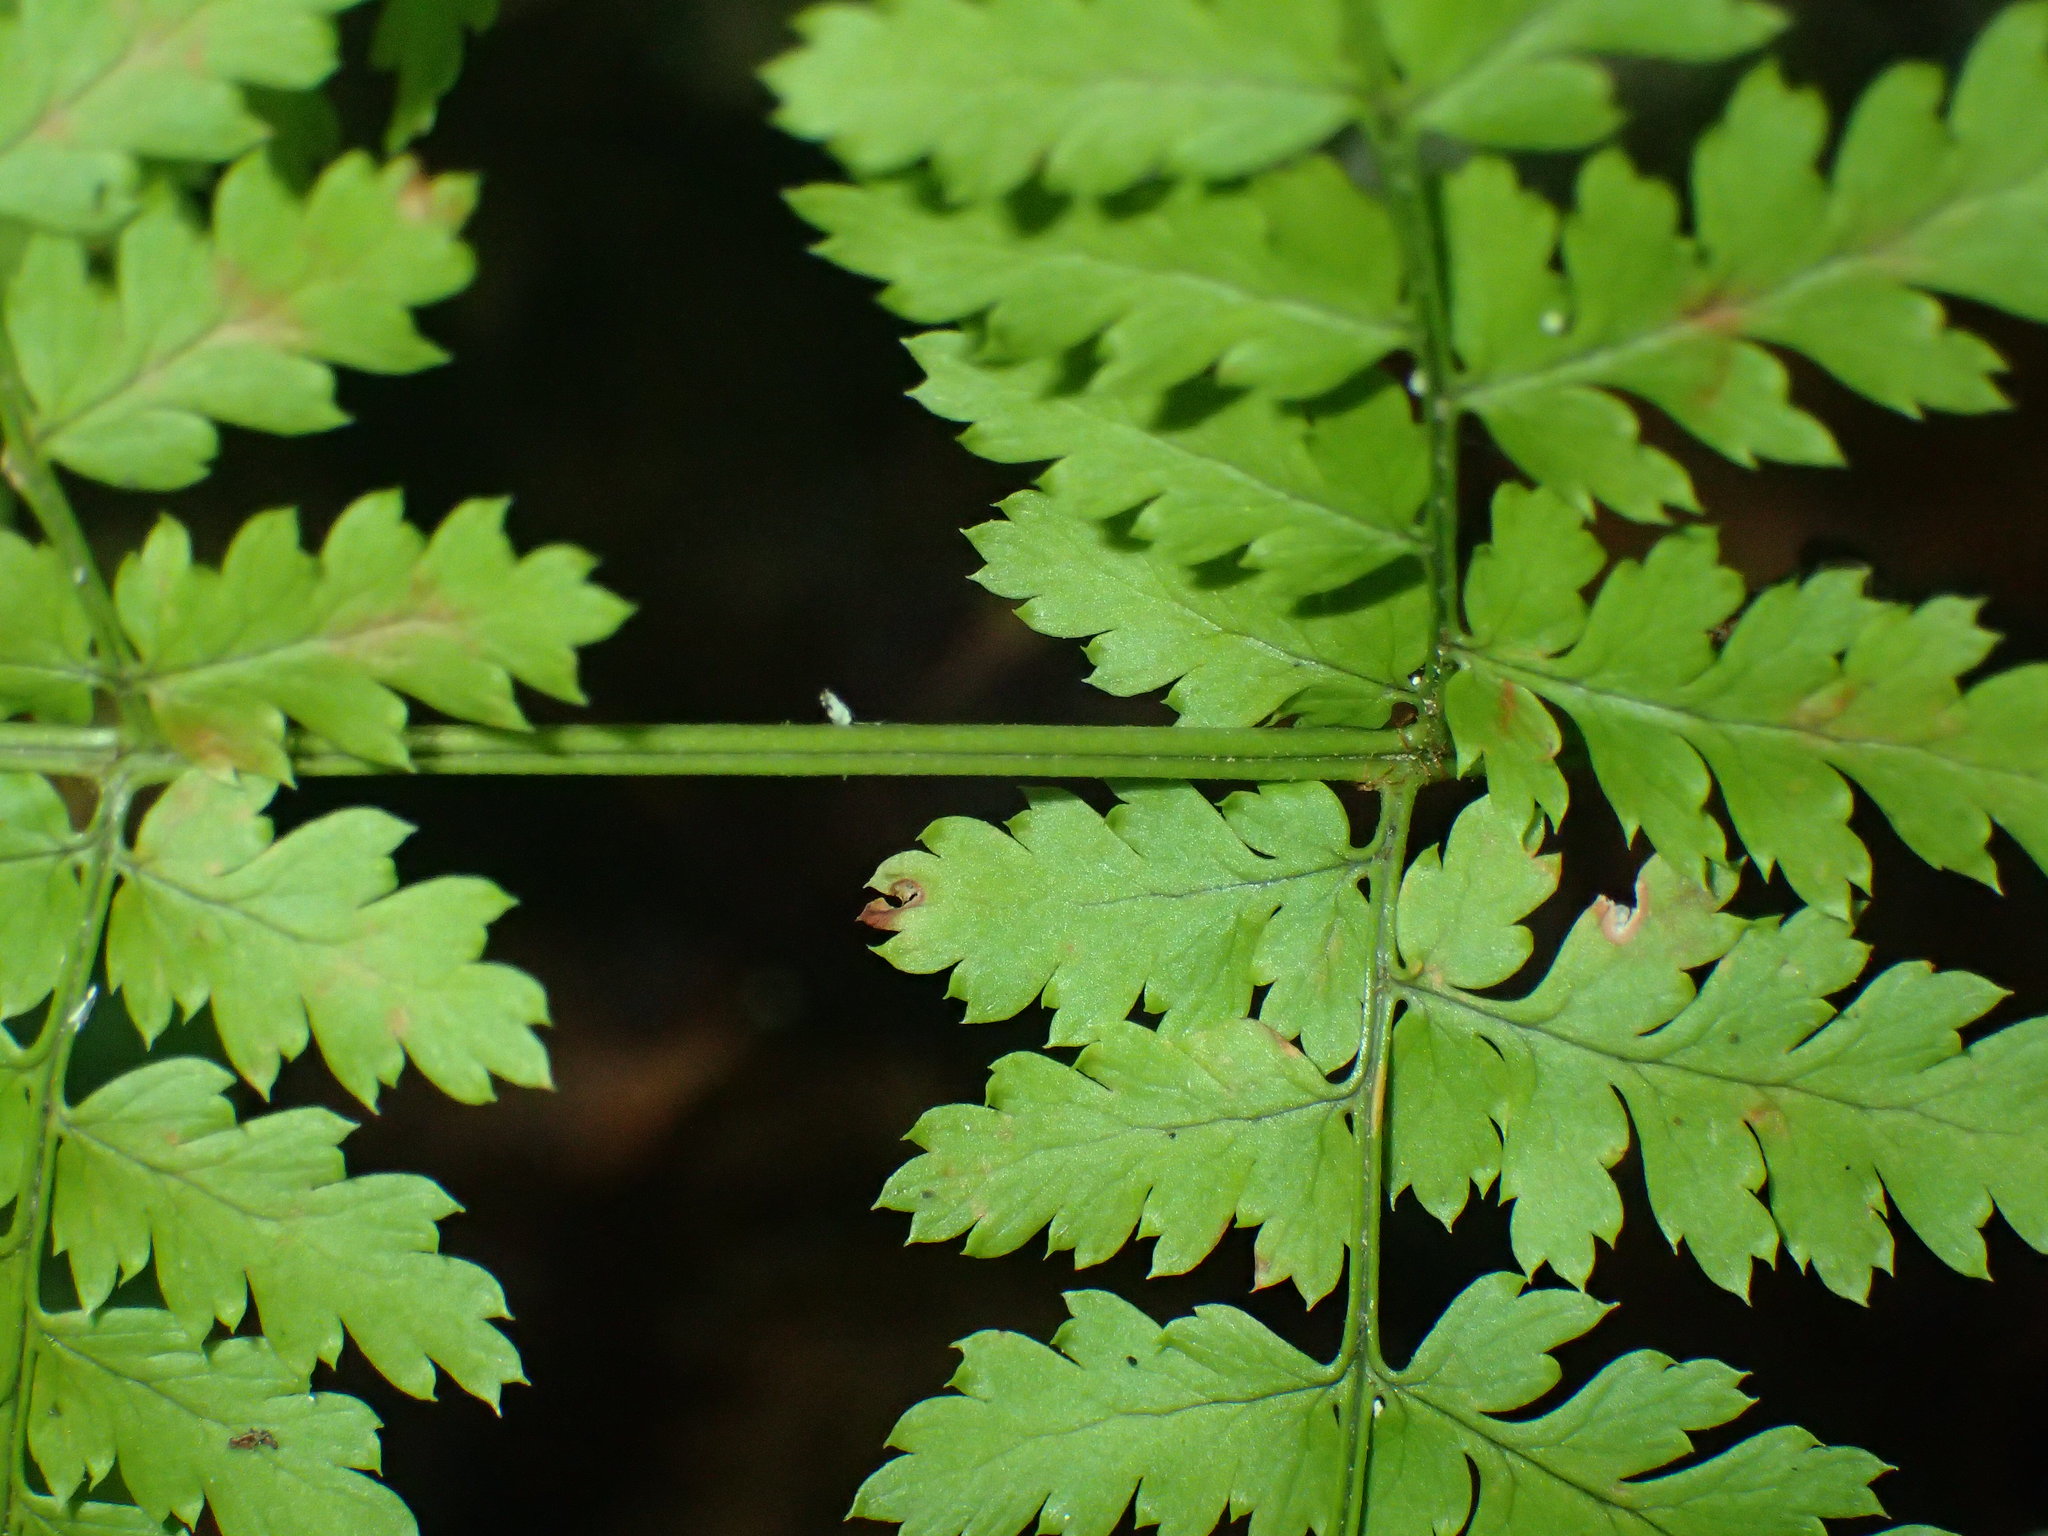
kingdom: Plantae
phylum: Tracheophyta
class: Polypodiopsida
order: Polypodiales
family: Dryopteridaceae
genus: Dryopteris
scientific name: Dryopteris intermedia
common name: Evergreen wood fern
